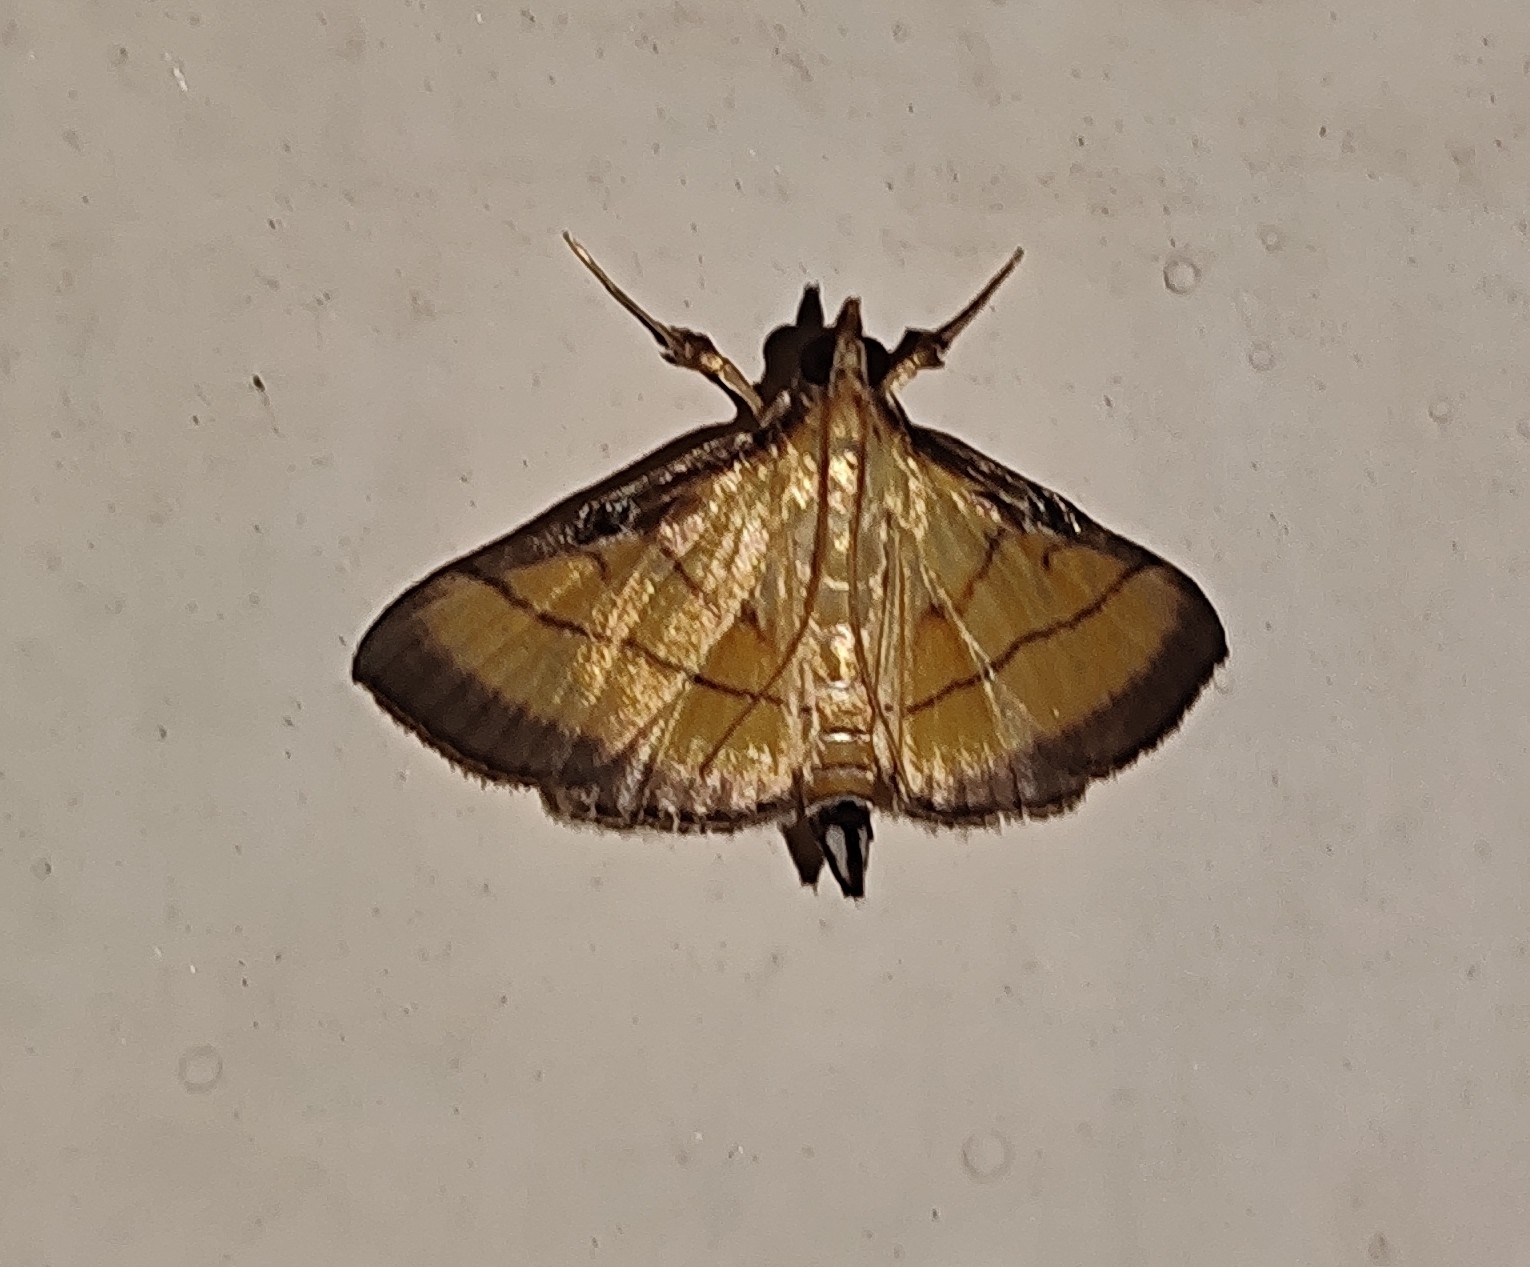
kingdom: Animalia
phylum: Arthropoda
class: Insecta
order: Lepidoptera
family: Crambidae
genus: Cnaphalocrocis
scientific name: Cnaphalocrocis medinalis
